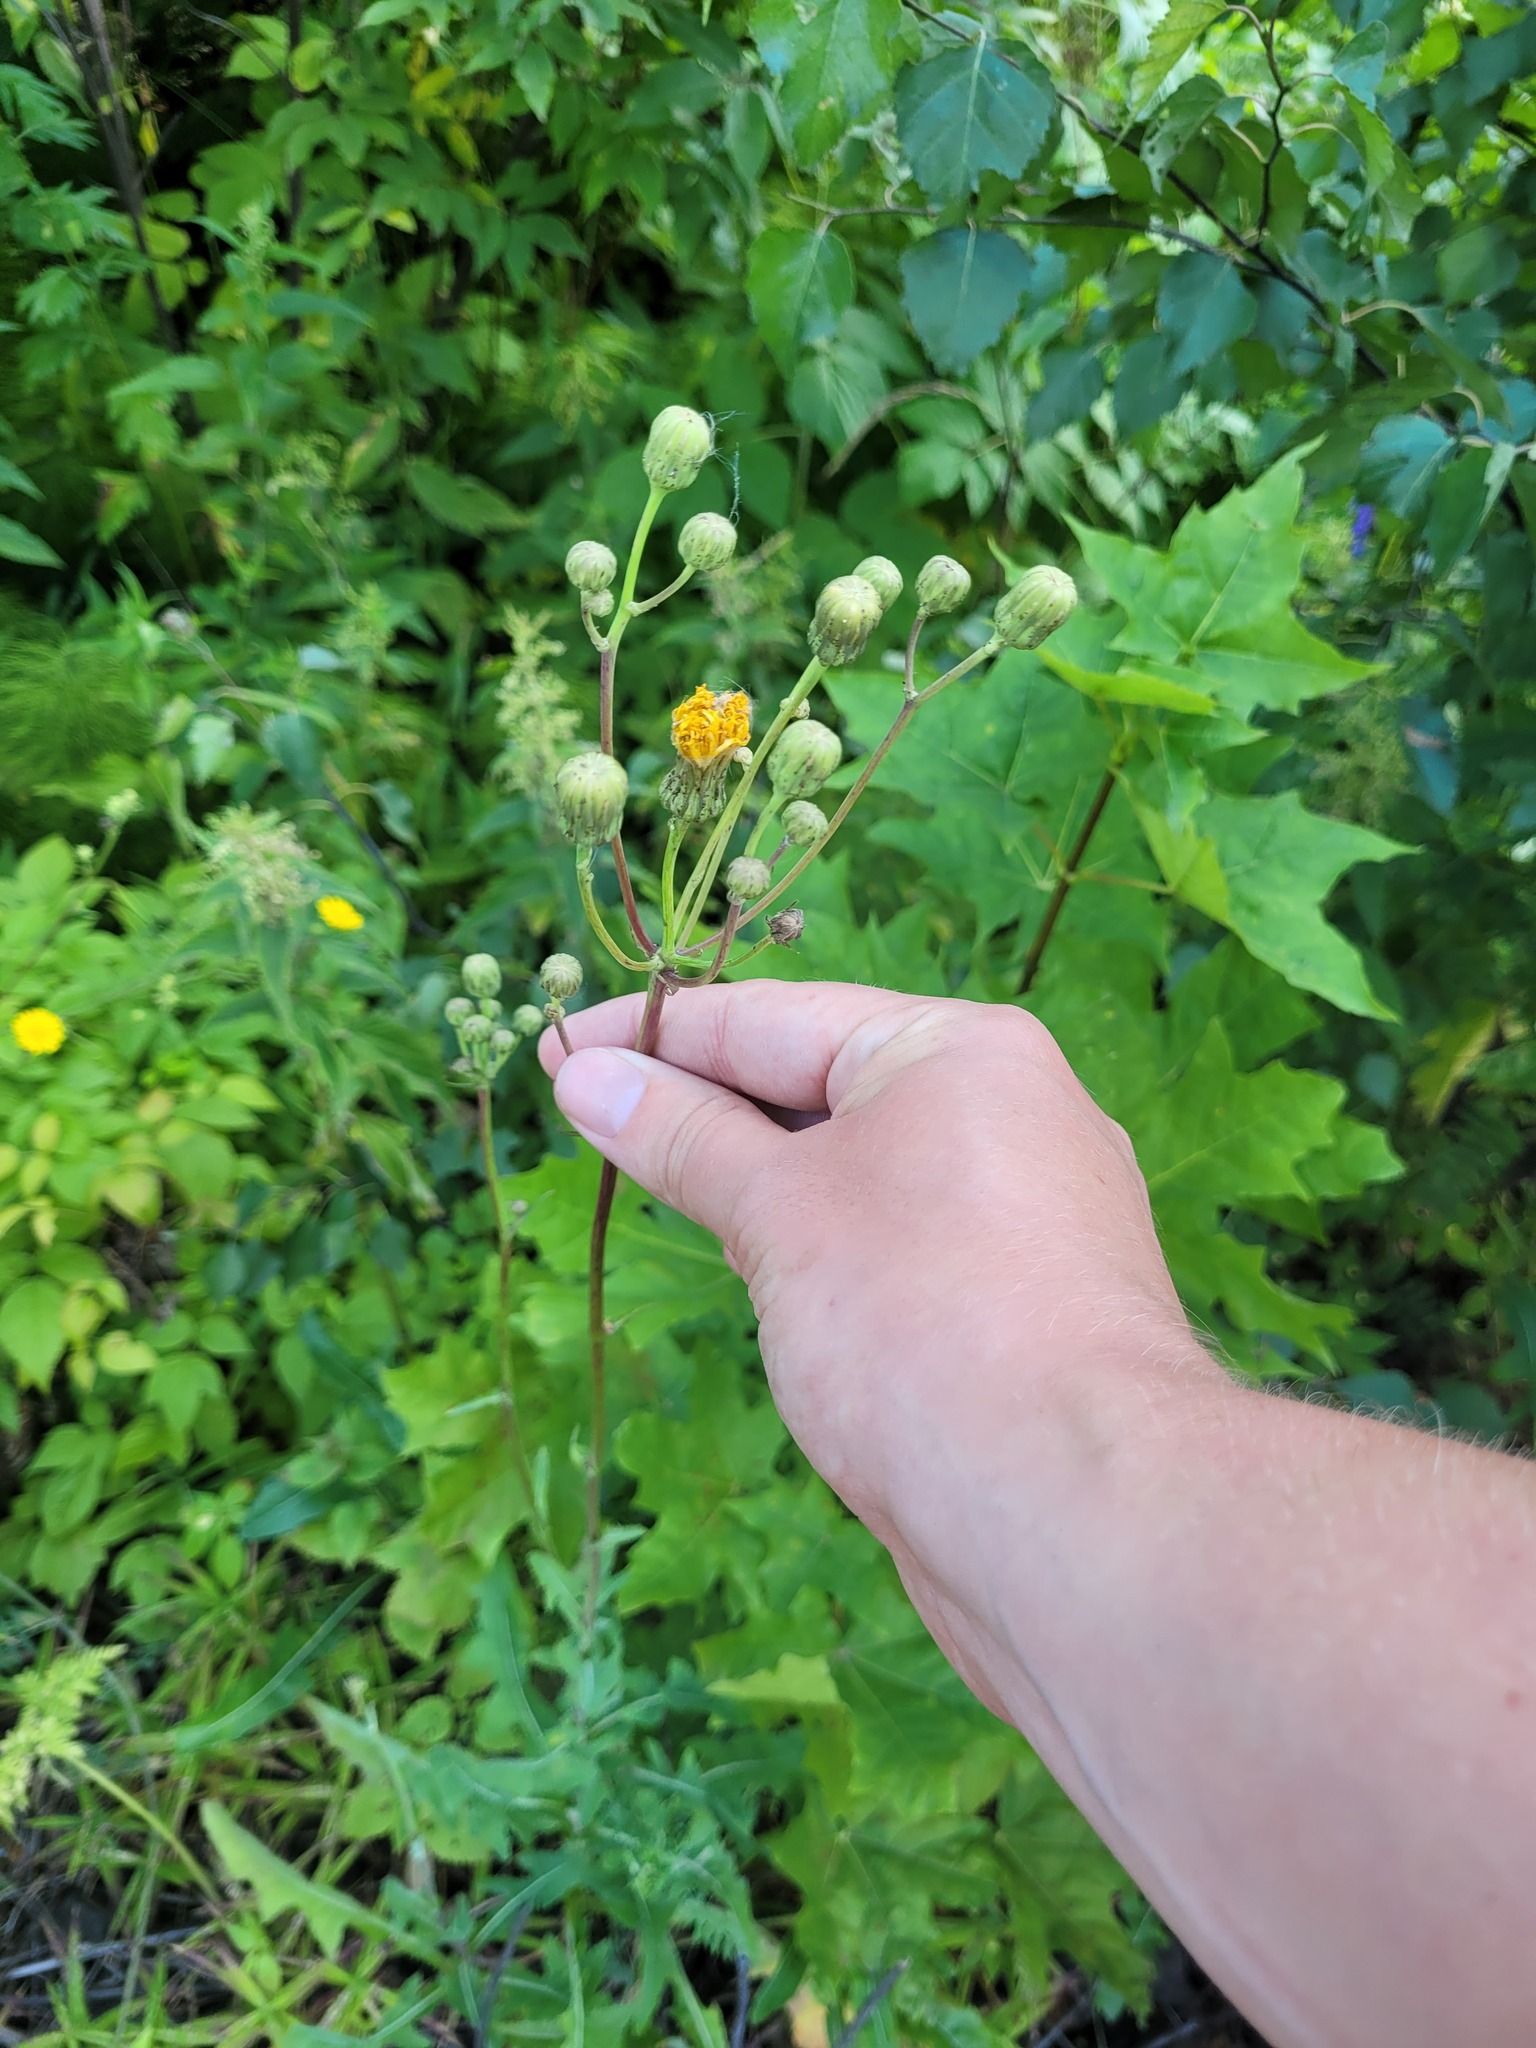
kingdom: Plantae
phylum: Tracheophyta
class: Magnoliopsida
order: Asterales
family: Asteraceae
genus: Sonchus
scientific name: Sonchus arvensis
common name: Perennial sow-thistle
